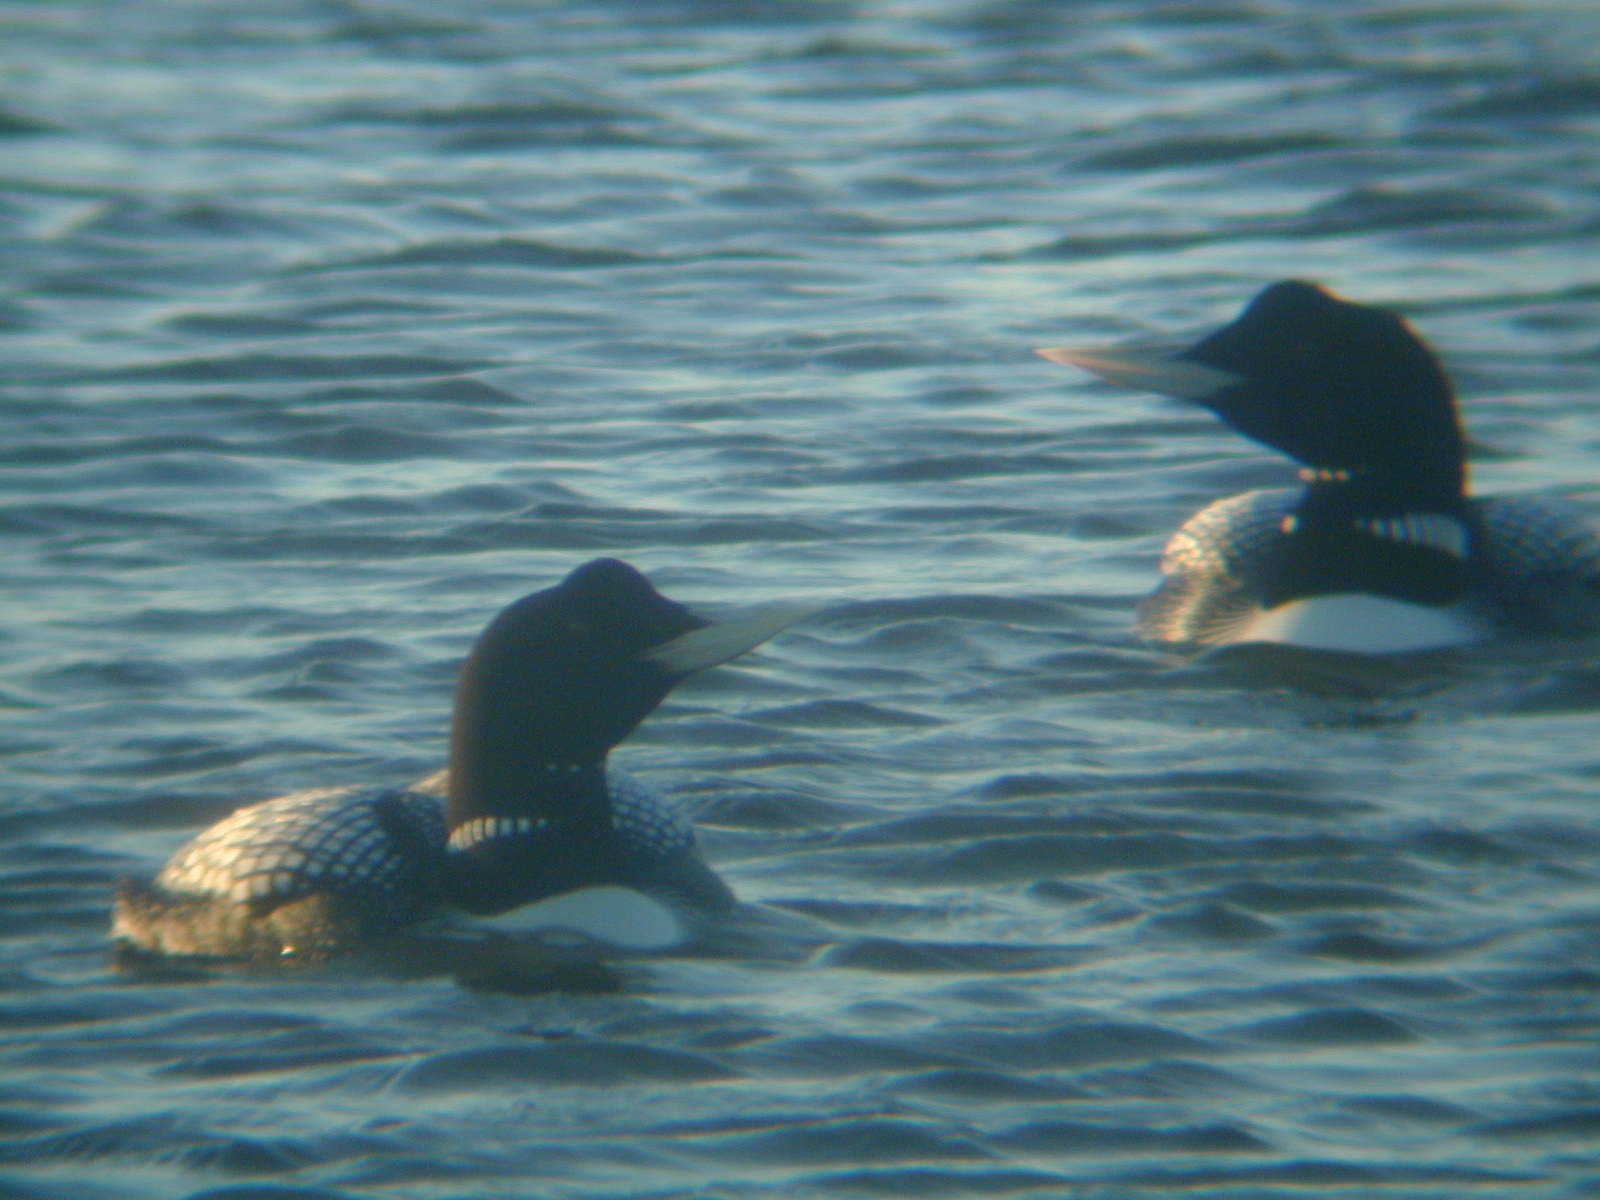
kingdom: Animalia
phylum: Chordata
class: Aves
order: Gaviiformes
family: Gaviidae
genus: Gavia
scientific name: Gavia adamsii
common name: Yellow-billed loon
